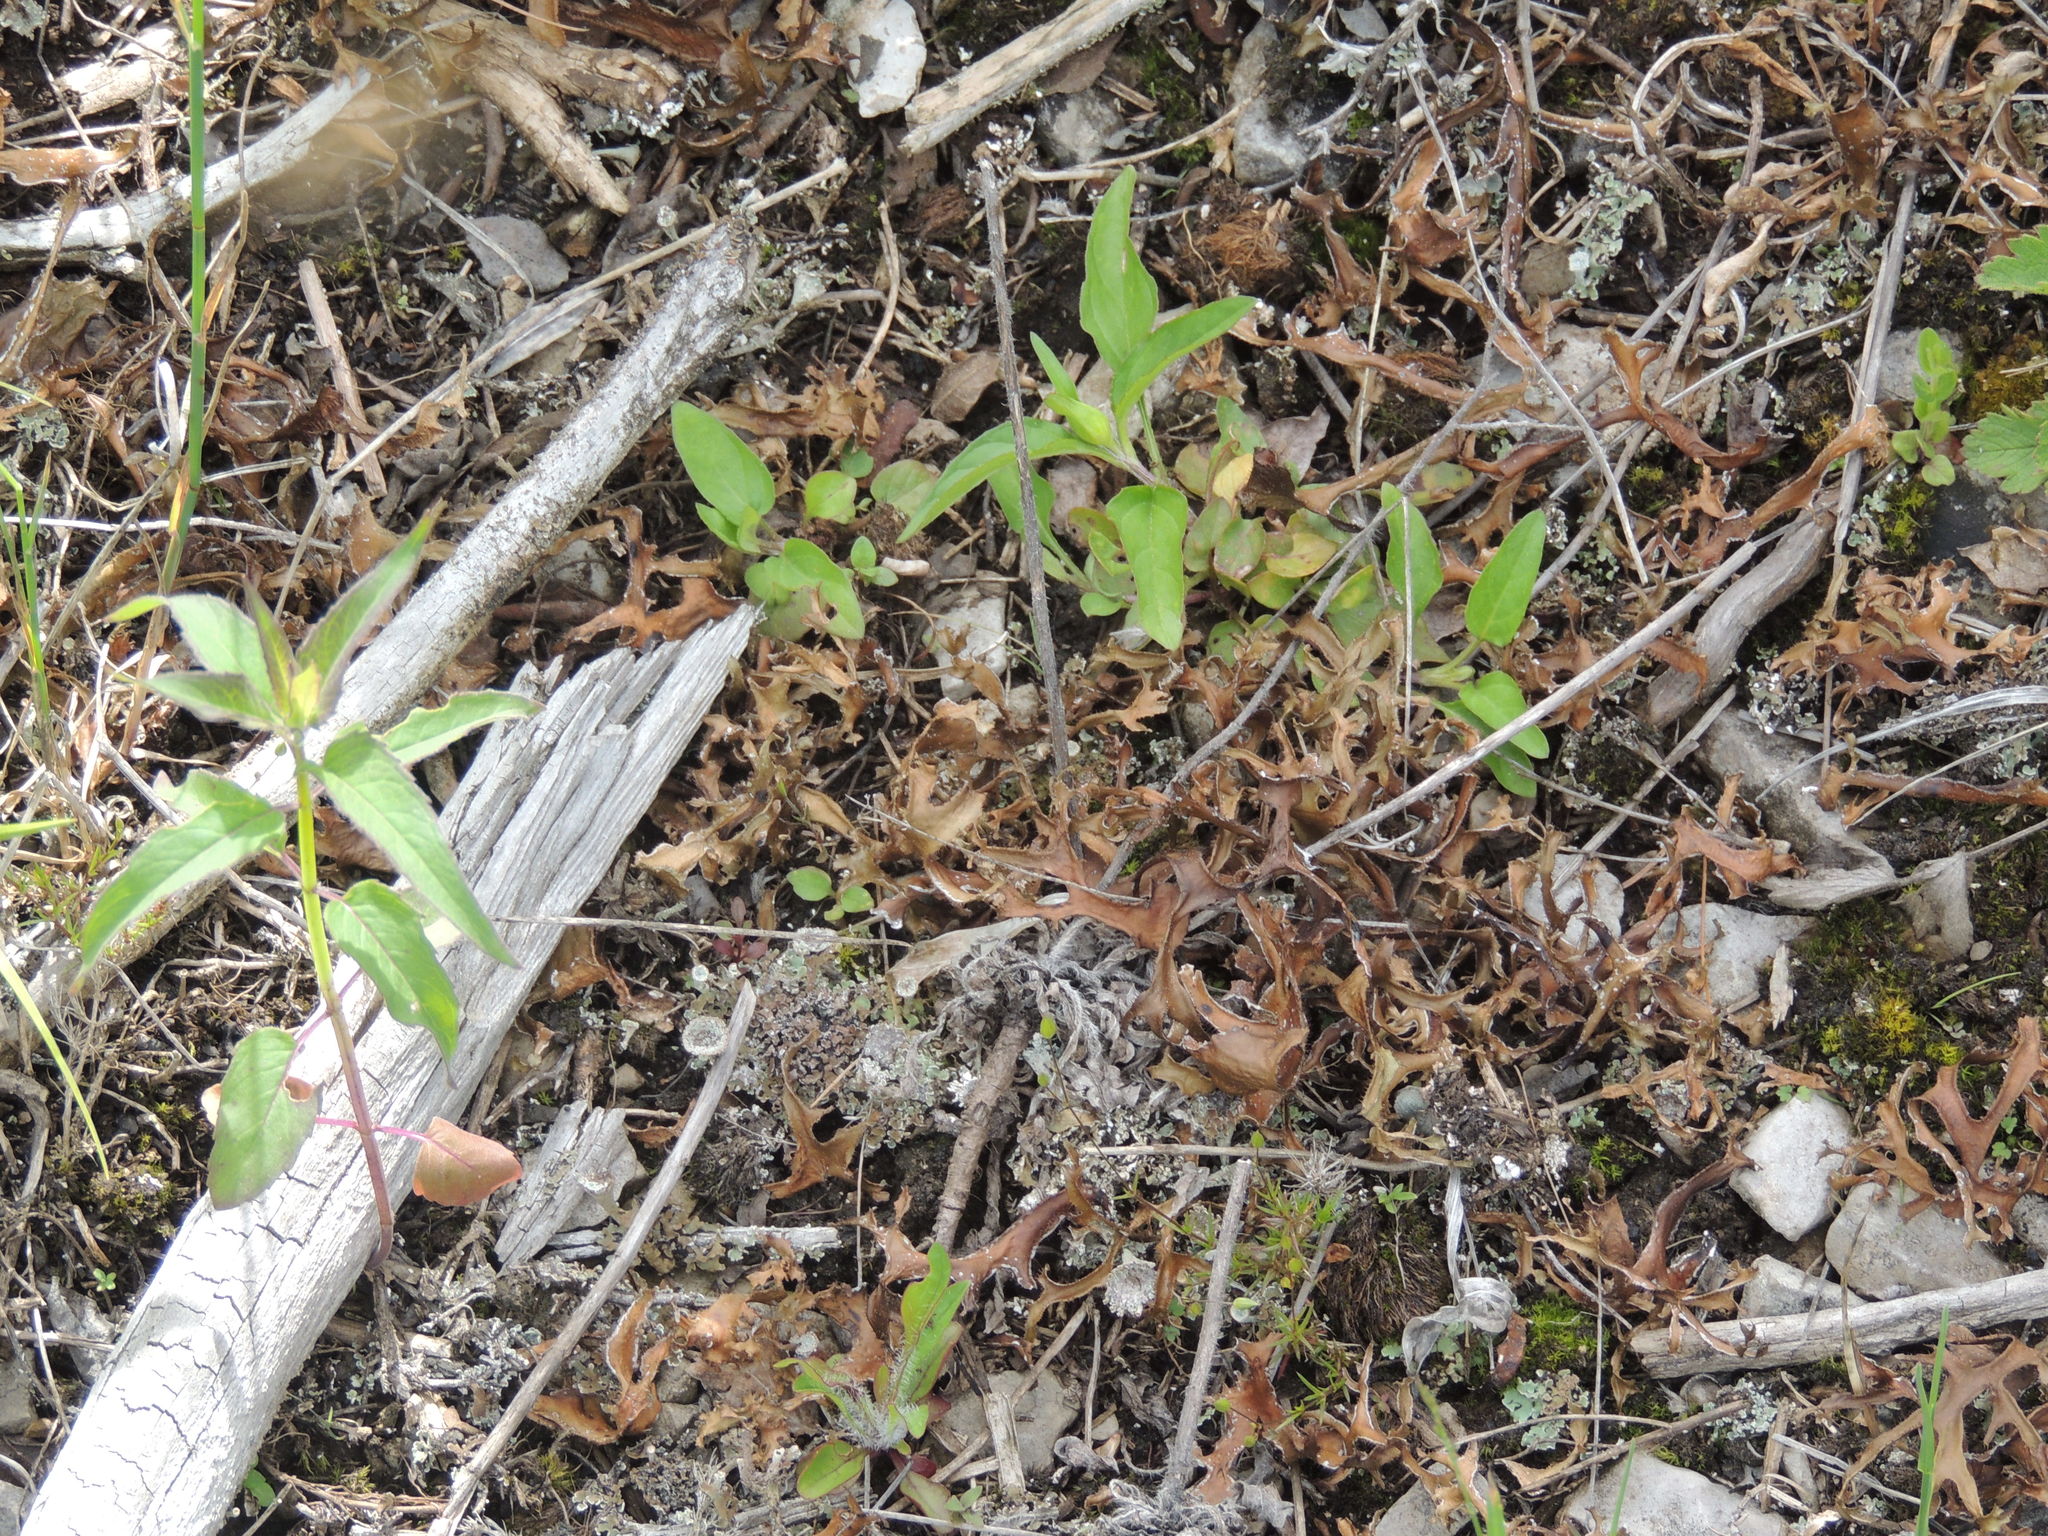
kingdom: Fungi
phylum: Ascomycota
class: Lecanoromycetes
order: Lecanorales
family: Parmeliaceae
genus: Cetraria
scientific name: Cetraria arenaria
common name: Sand-loving iceland lichen
